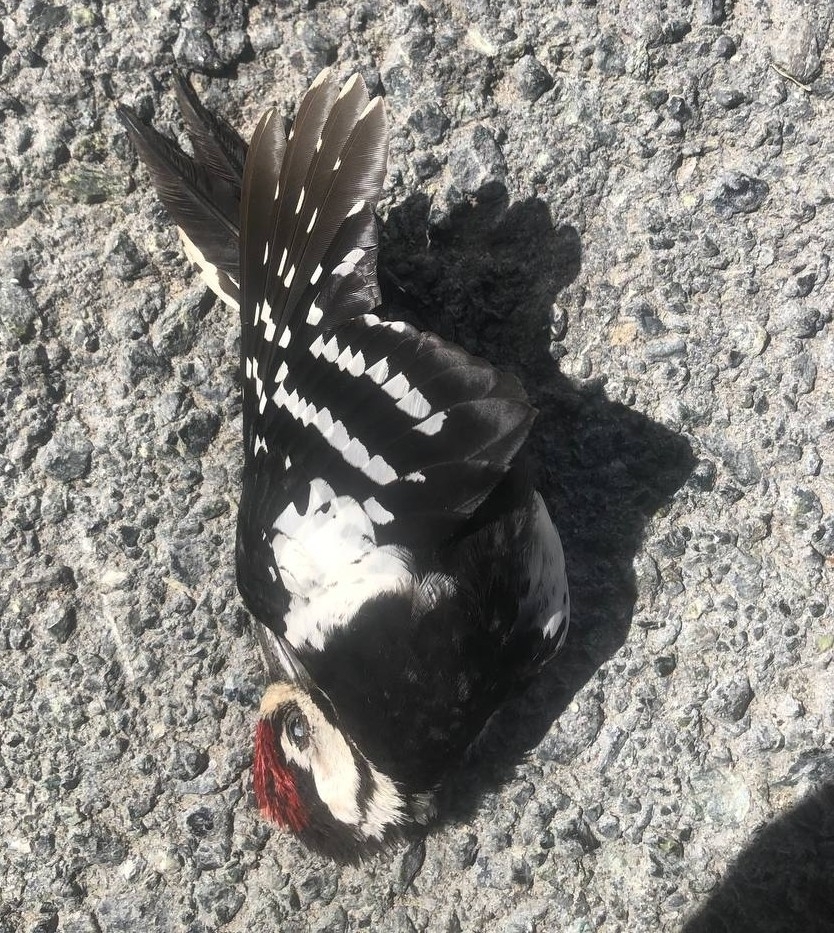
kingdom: Animalia
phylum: Chordata
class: Aves
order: Piciformes
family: Picidae
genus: Dendrocopos
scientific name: Dendrocopos major
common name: Great spotted woodpecker
